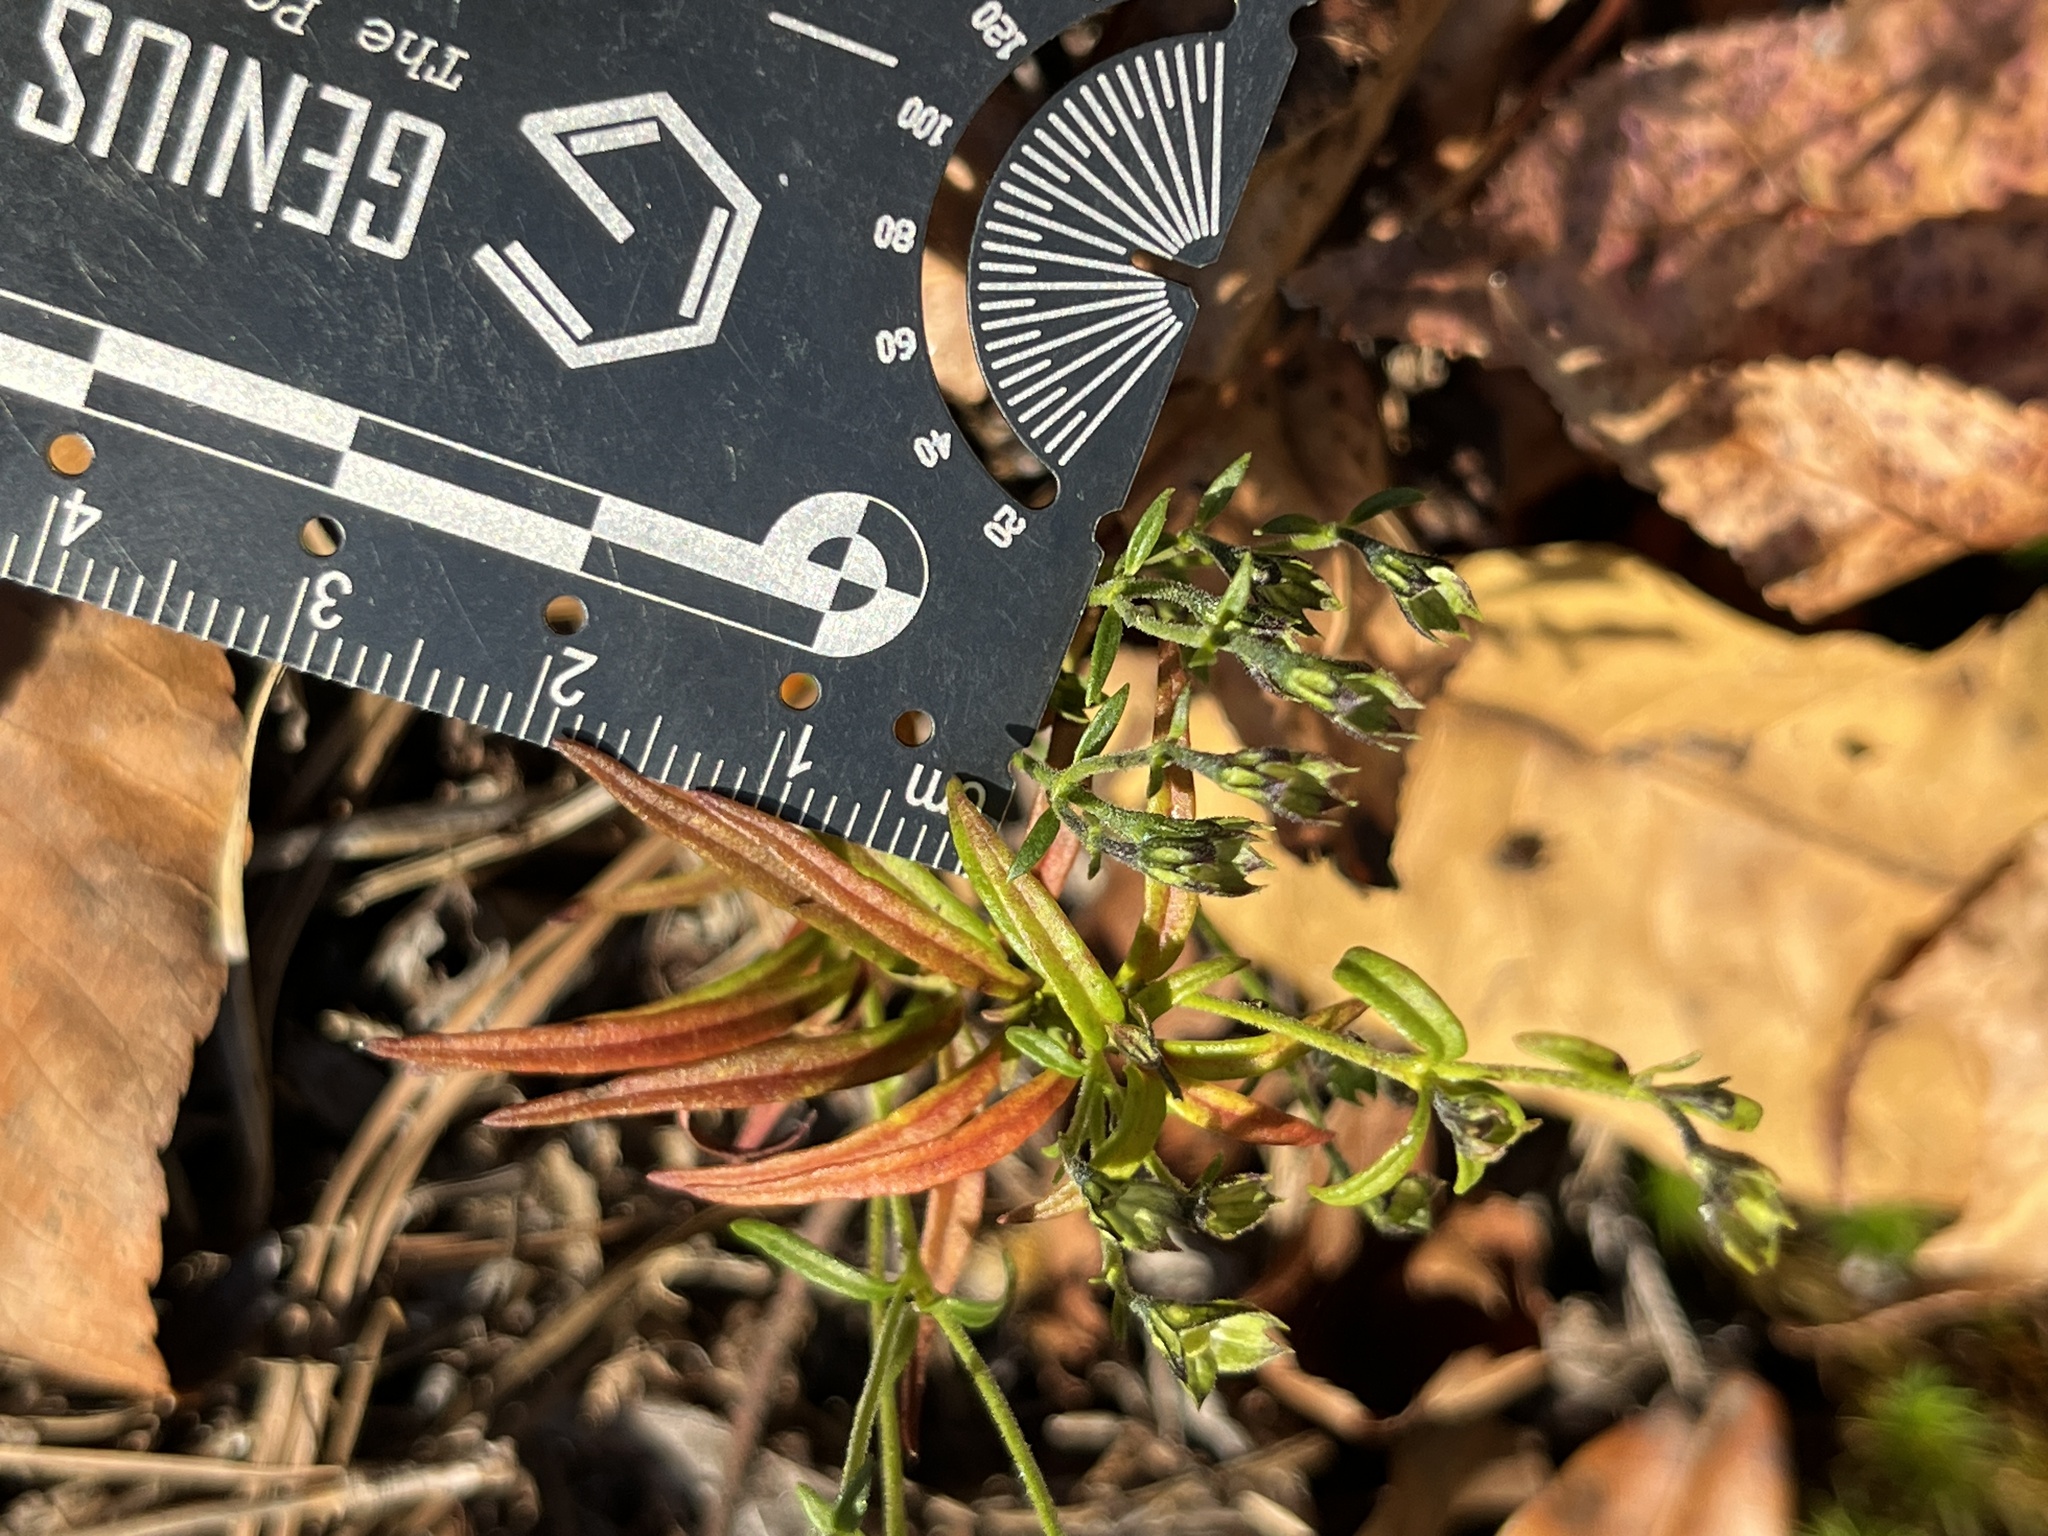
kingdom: Plantae
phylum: Tracheophyta
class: Magnoliopsida
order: Lamiales
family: Lamiaceae
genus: Trichostema
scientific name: Trichostema setaceum
